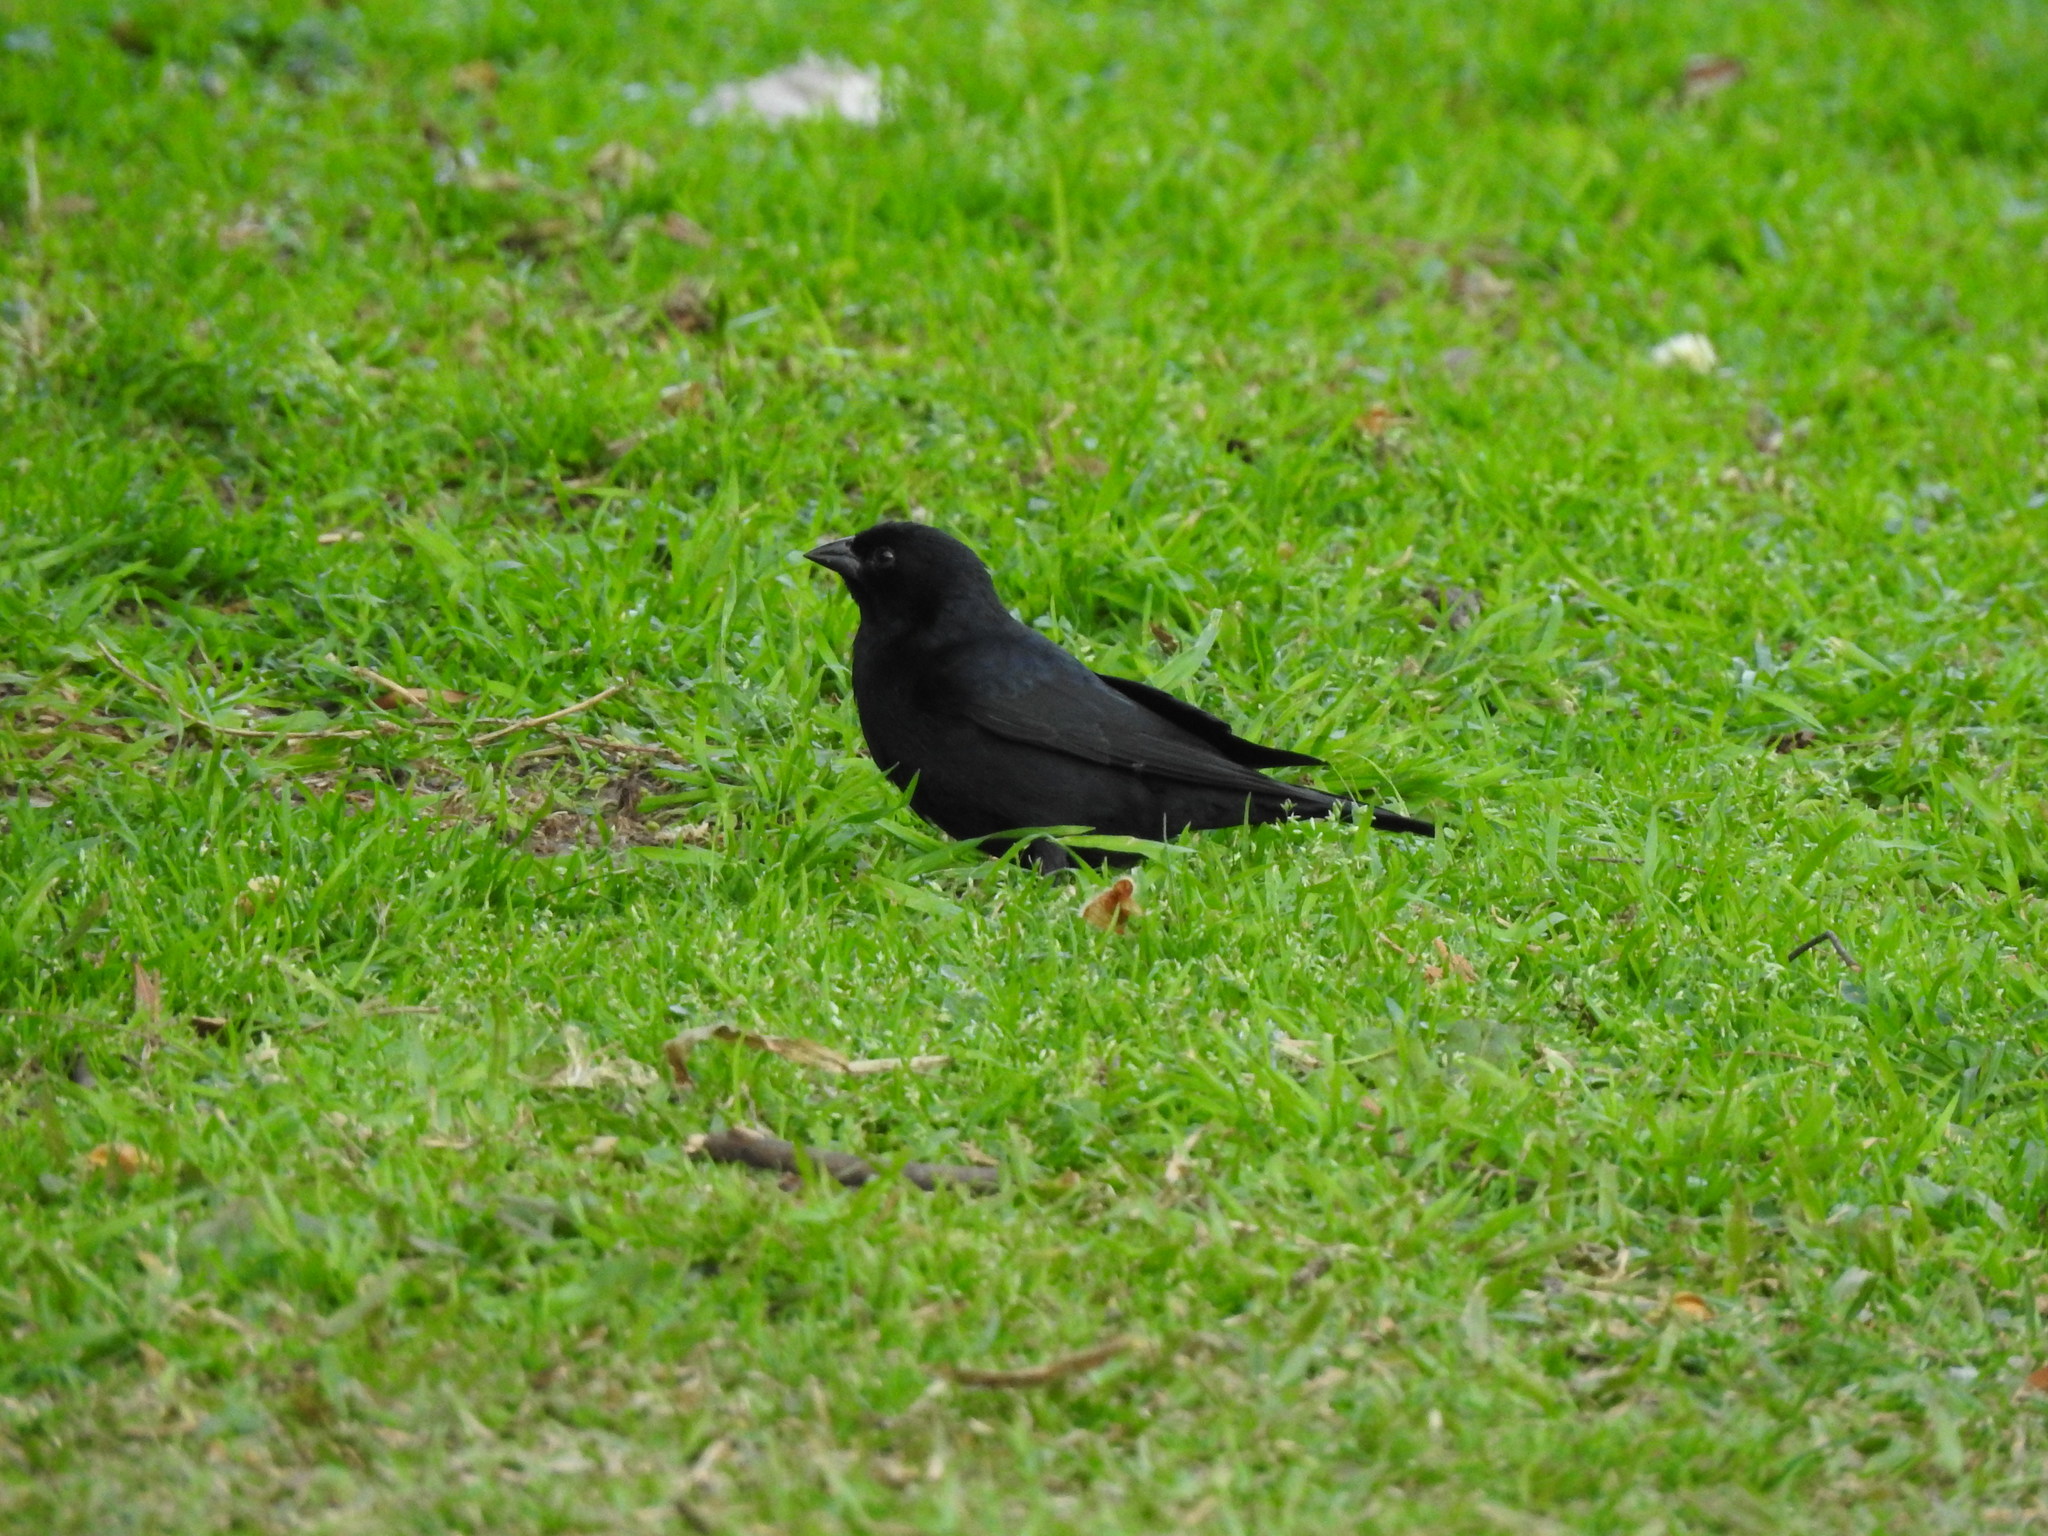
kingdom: Animalia
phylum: Chordata
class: Aves
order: Passeriformes
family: Icteridae
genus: Molothrus
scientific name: Molothrus bonariensis
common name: Shiny cowbird
